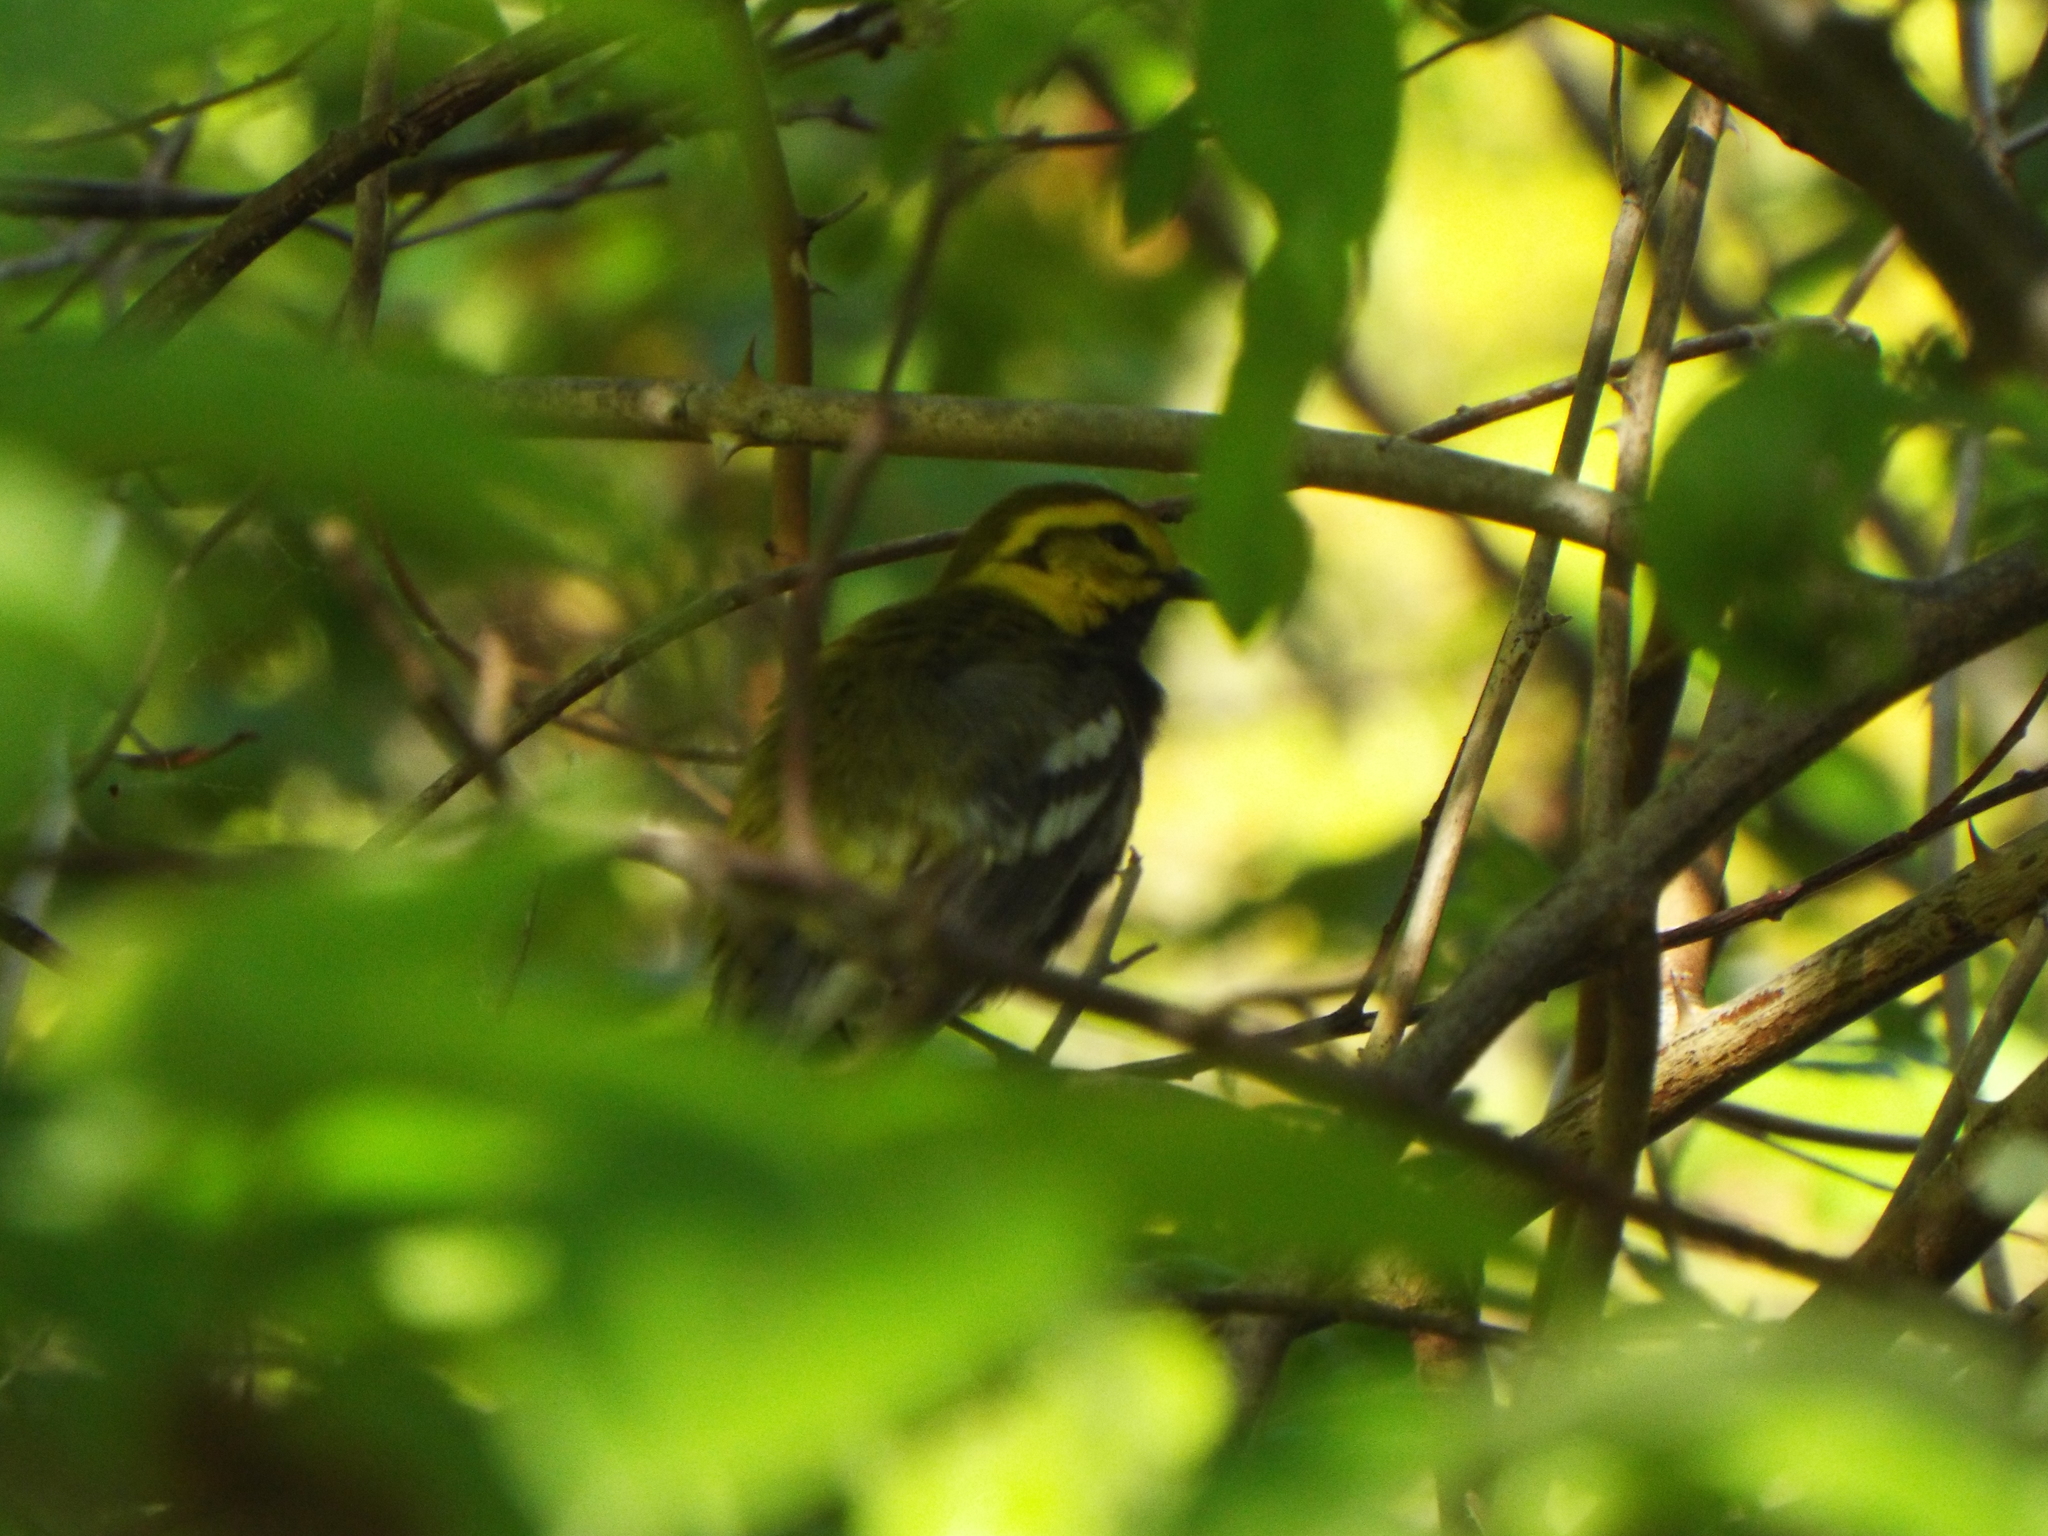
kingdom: Animalia
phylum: Chordata
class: Aves
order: Passeriformes
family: Parulidae
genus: Setophaga
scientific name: Setophaga virens
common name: Black-throated green warbler
